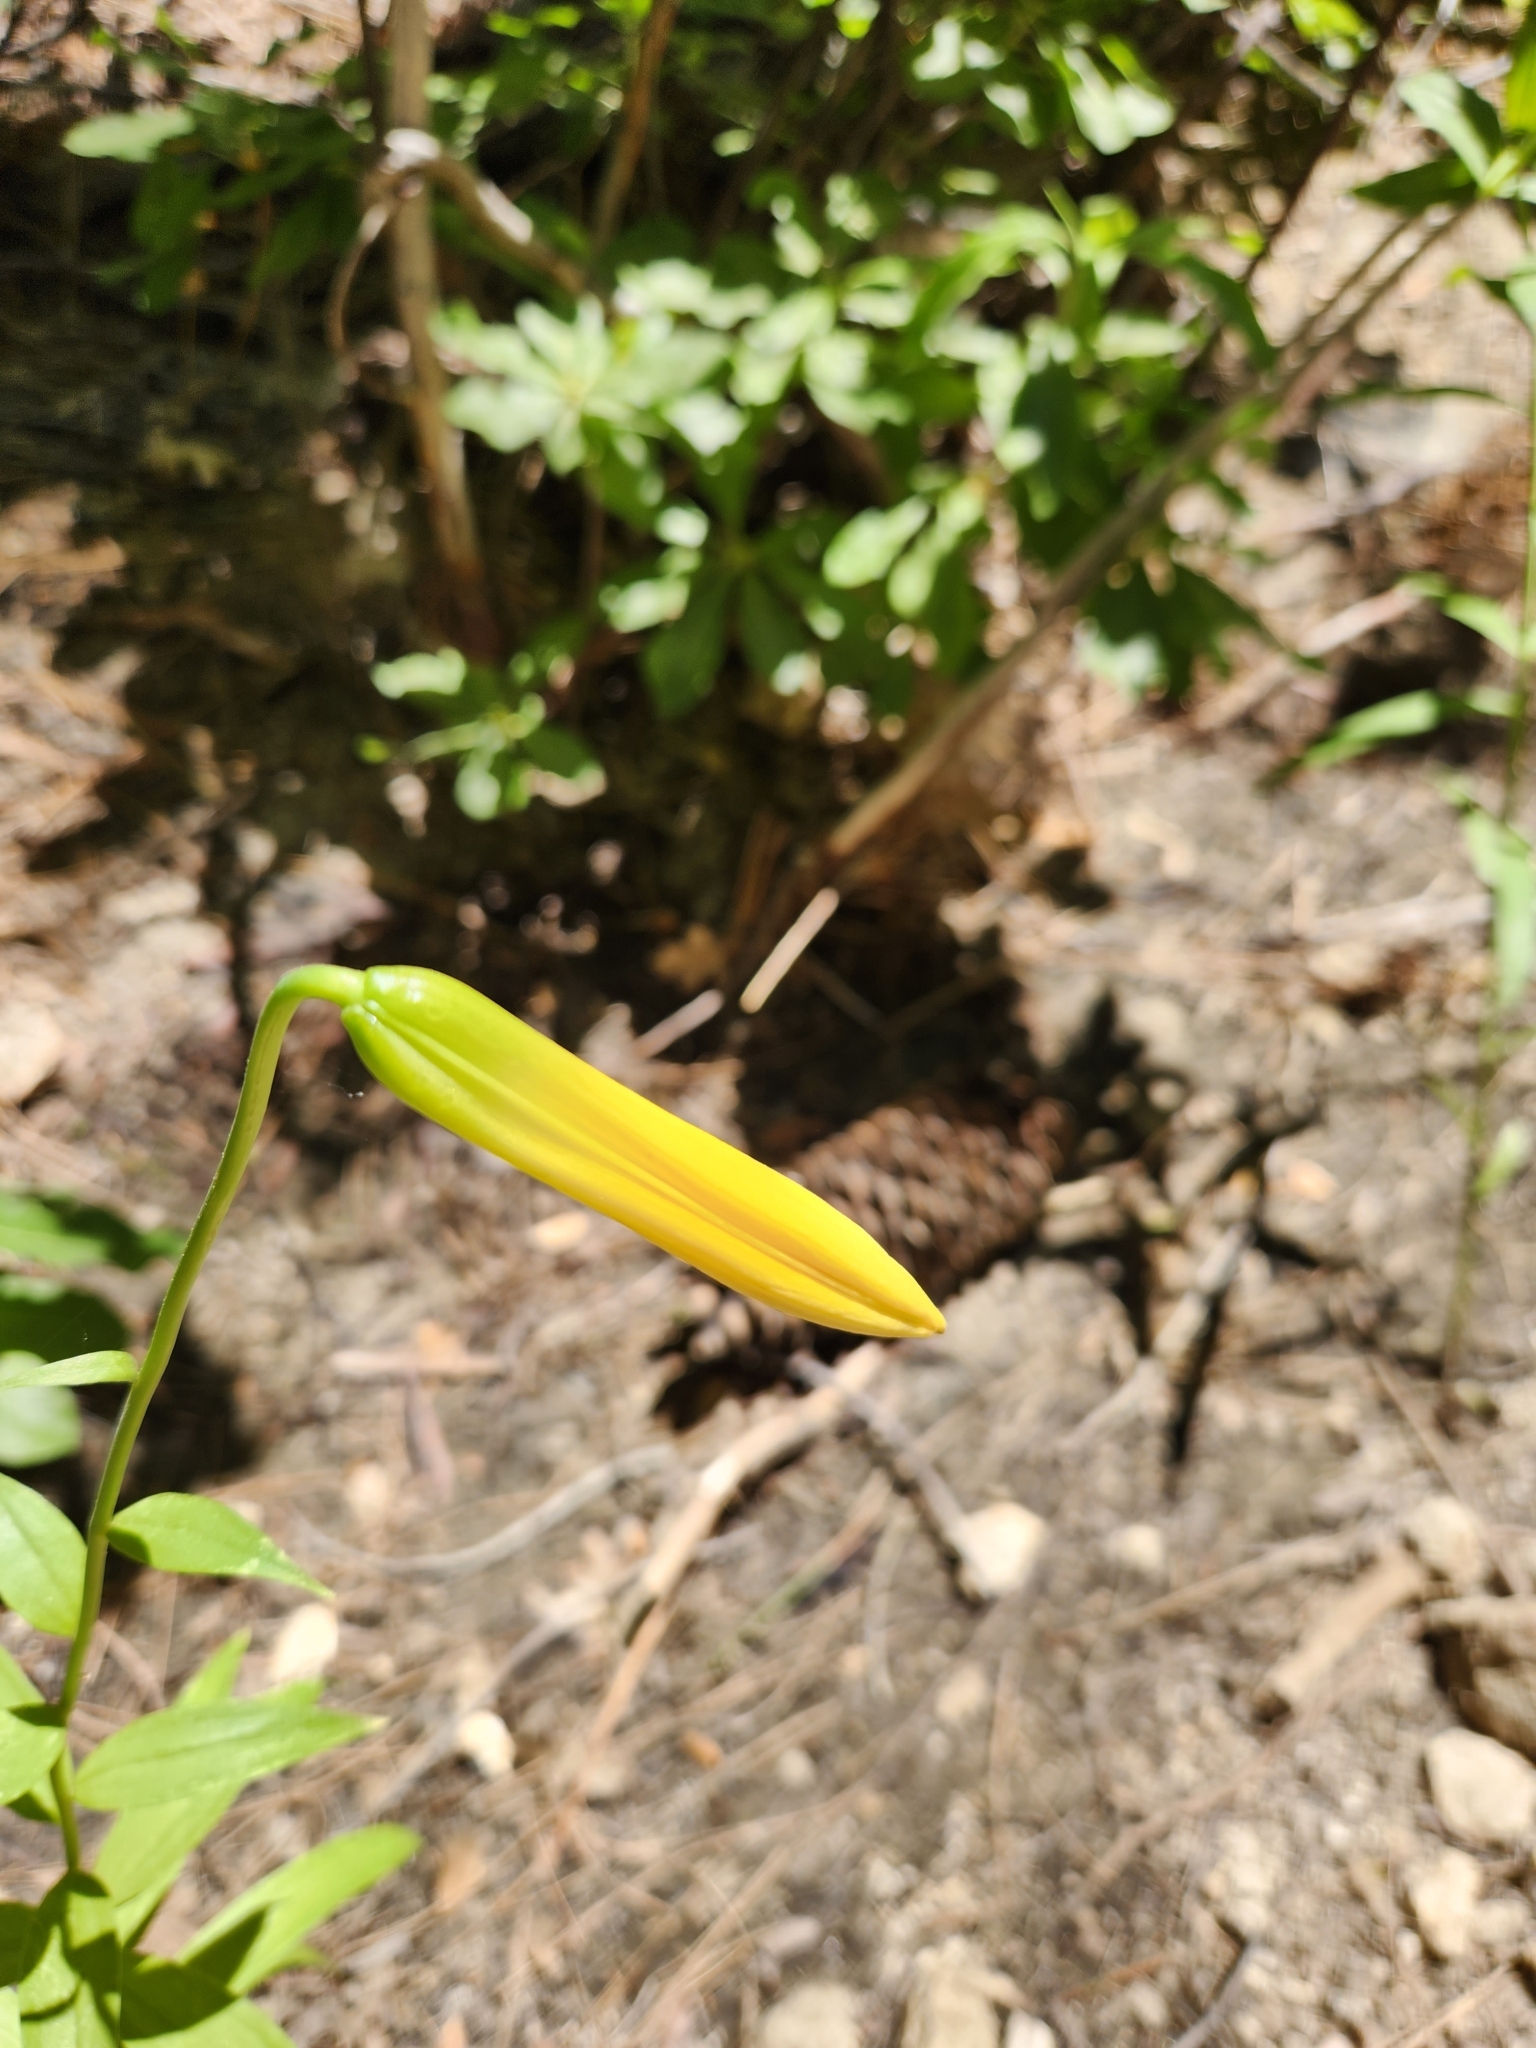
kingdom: Plantae
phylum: Tracheophyta
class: Liliopsida
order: Liliales
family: Liliaceae
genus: Lilium
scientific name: Lilium parryi
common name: Lemon lily
